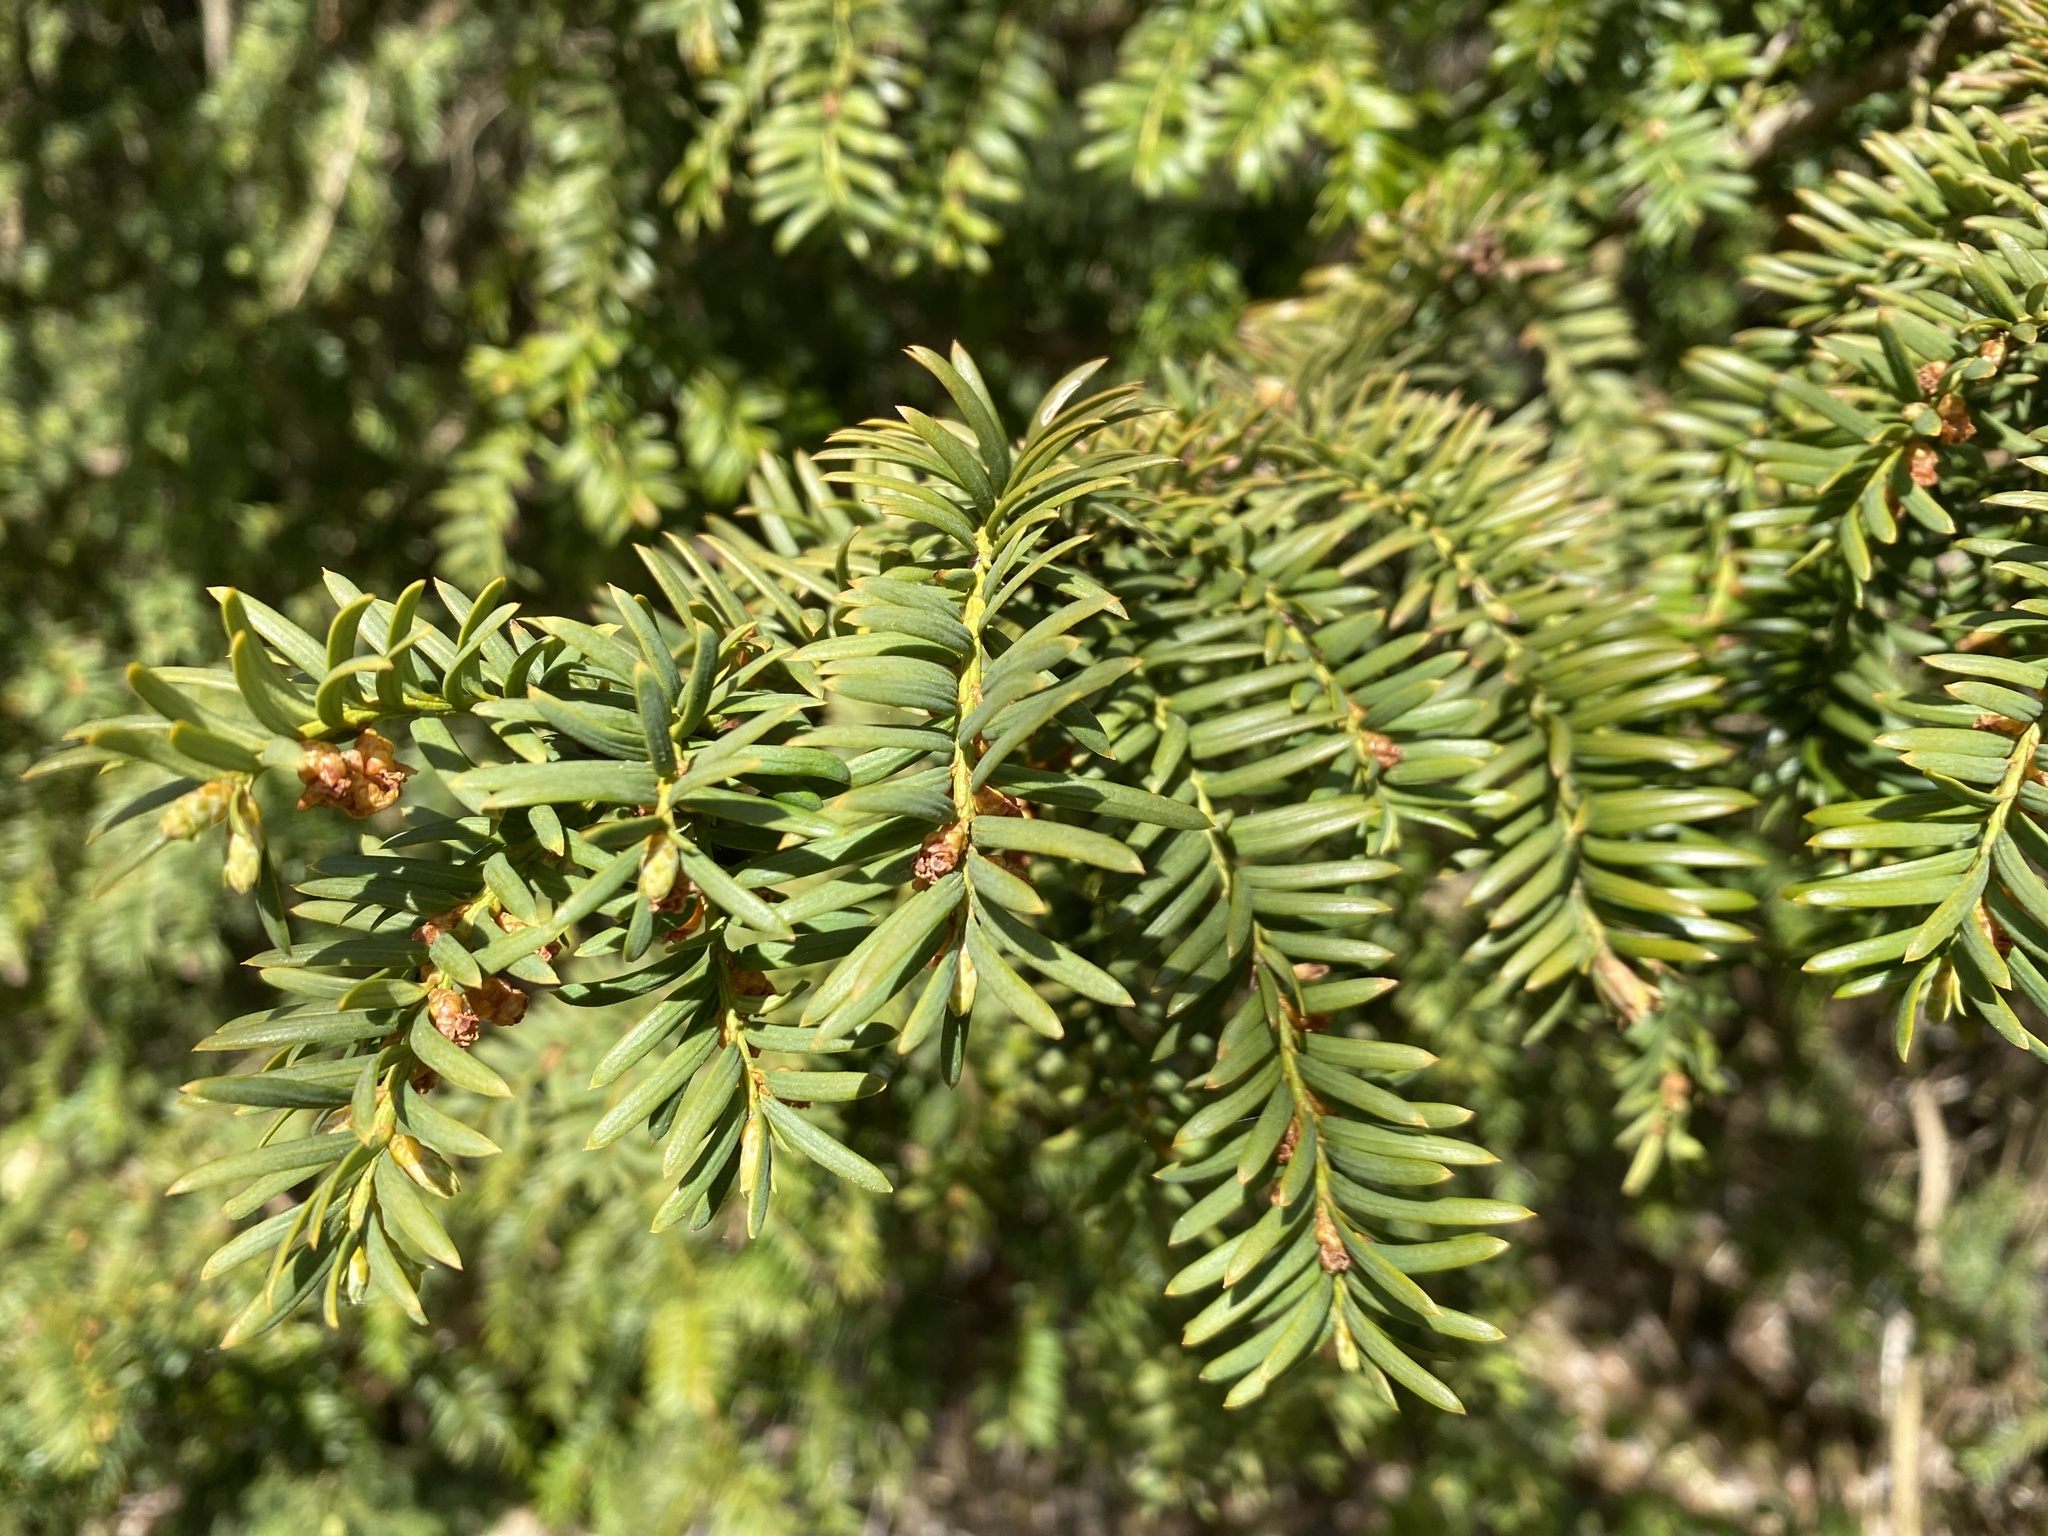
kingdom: Plantae
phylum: Tracheophyta
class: Pinopsida
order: Pinales
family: Taxaceae
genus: Taxus
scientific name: Taxus baccata
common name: Yew
